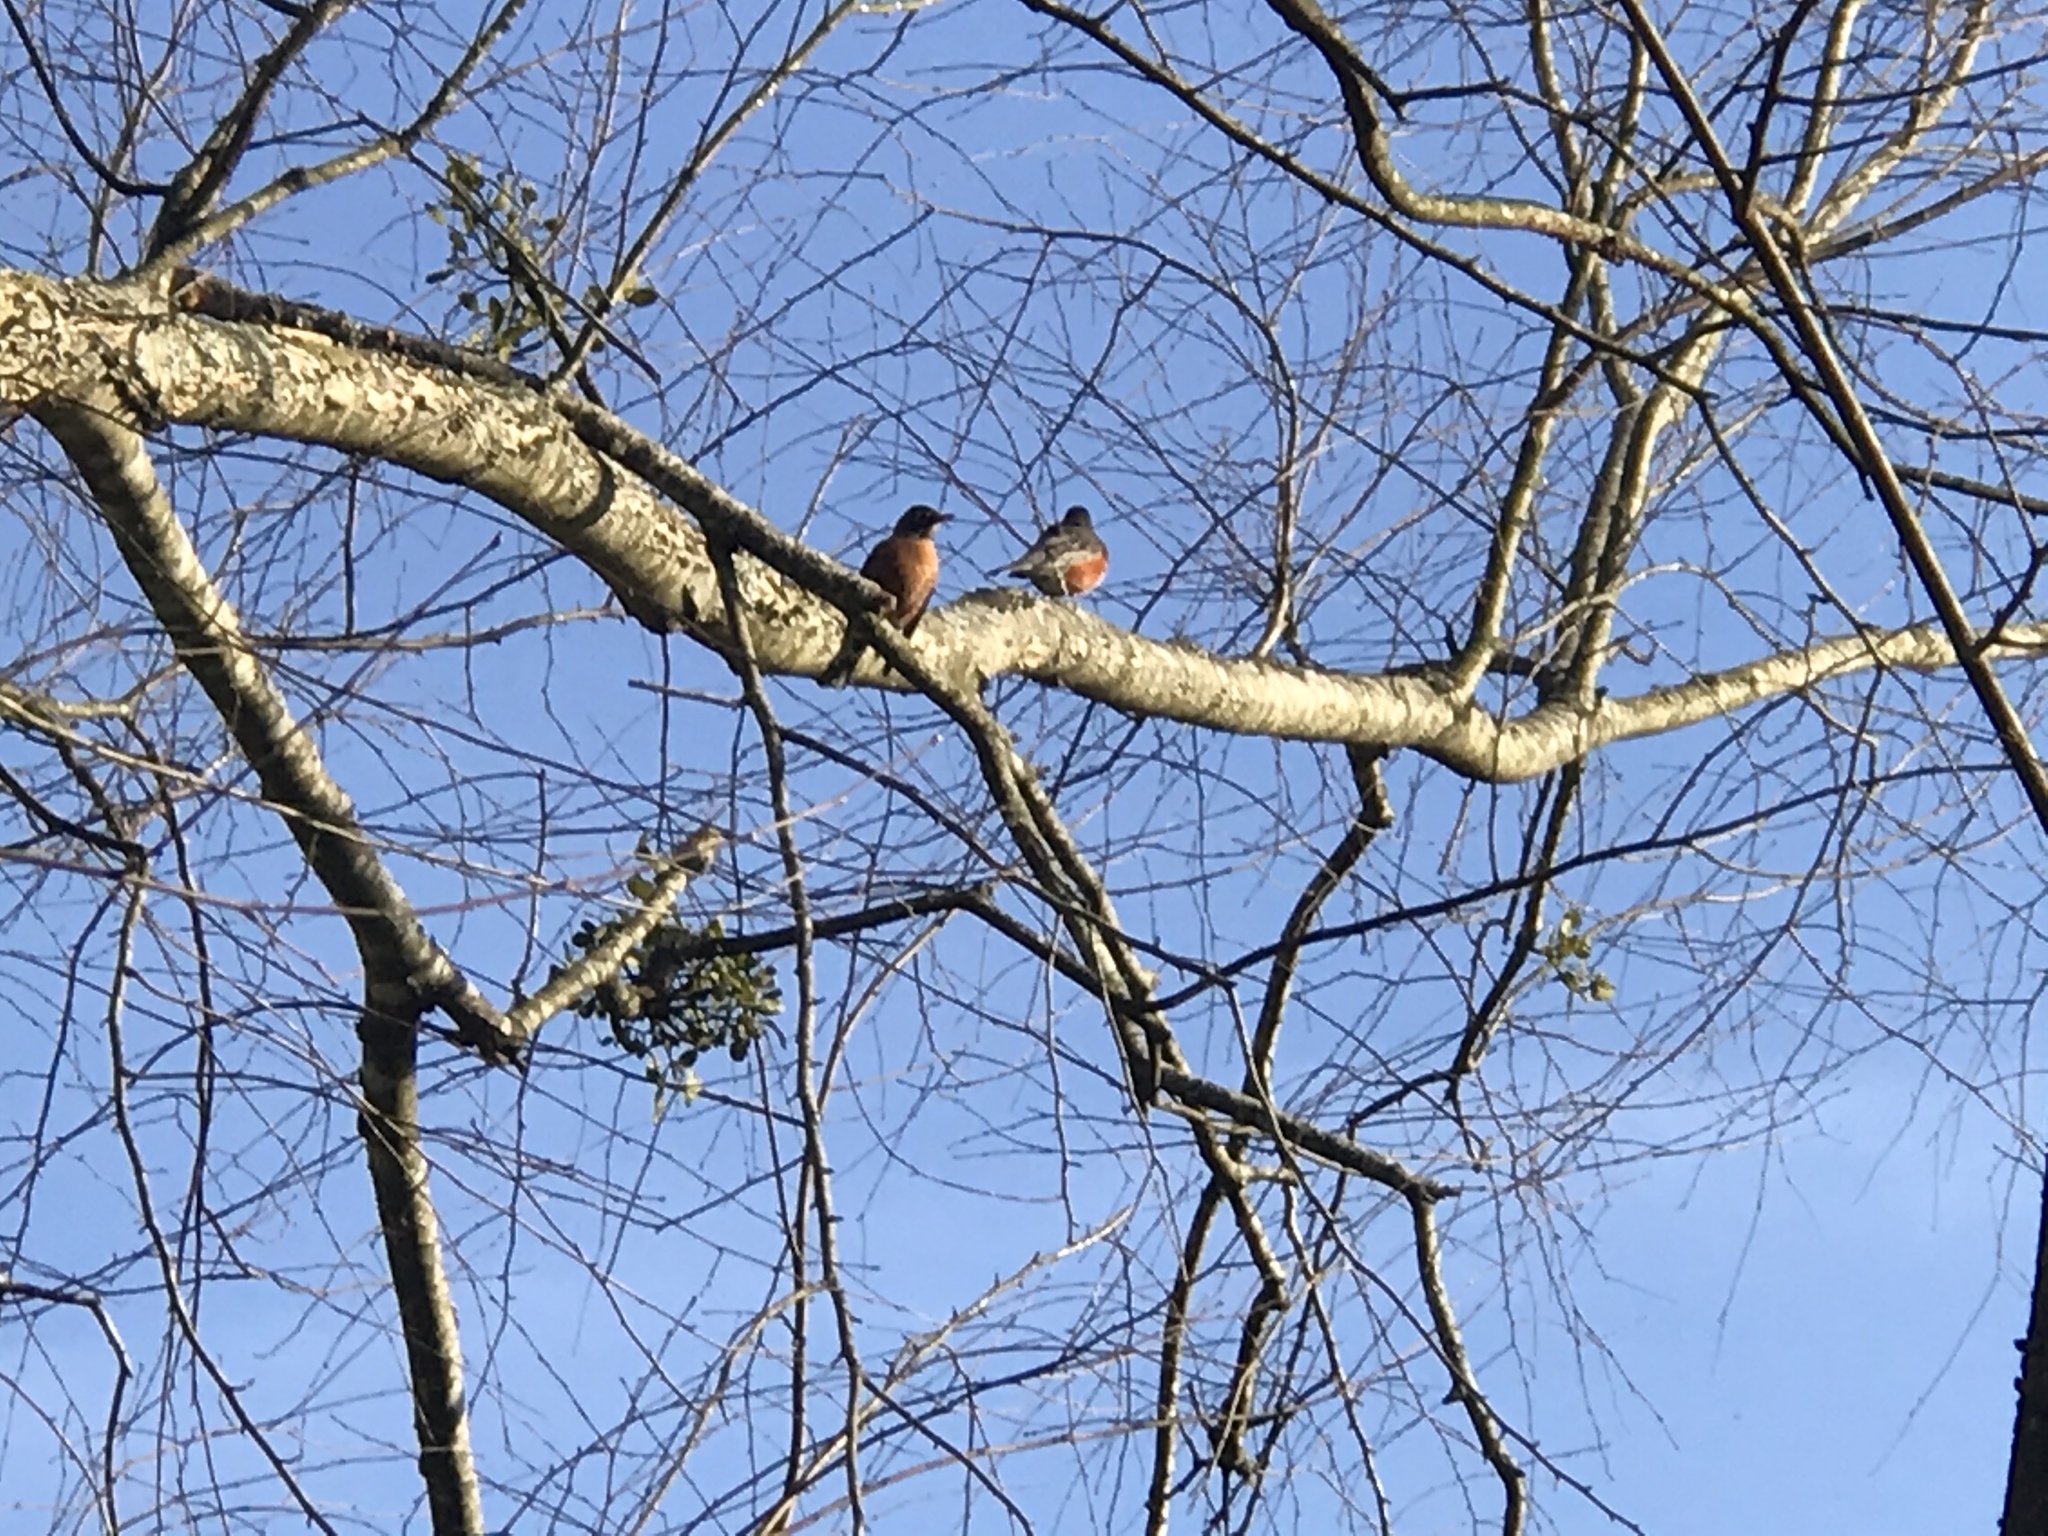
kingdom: Animalia
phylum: Chordata
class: Aves
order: Passeriformes
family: Turdidae
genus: Turdus
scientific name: Turdus migratorius
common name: American robin
